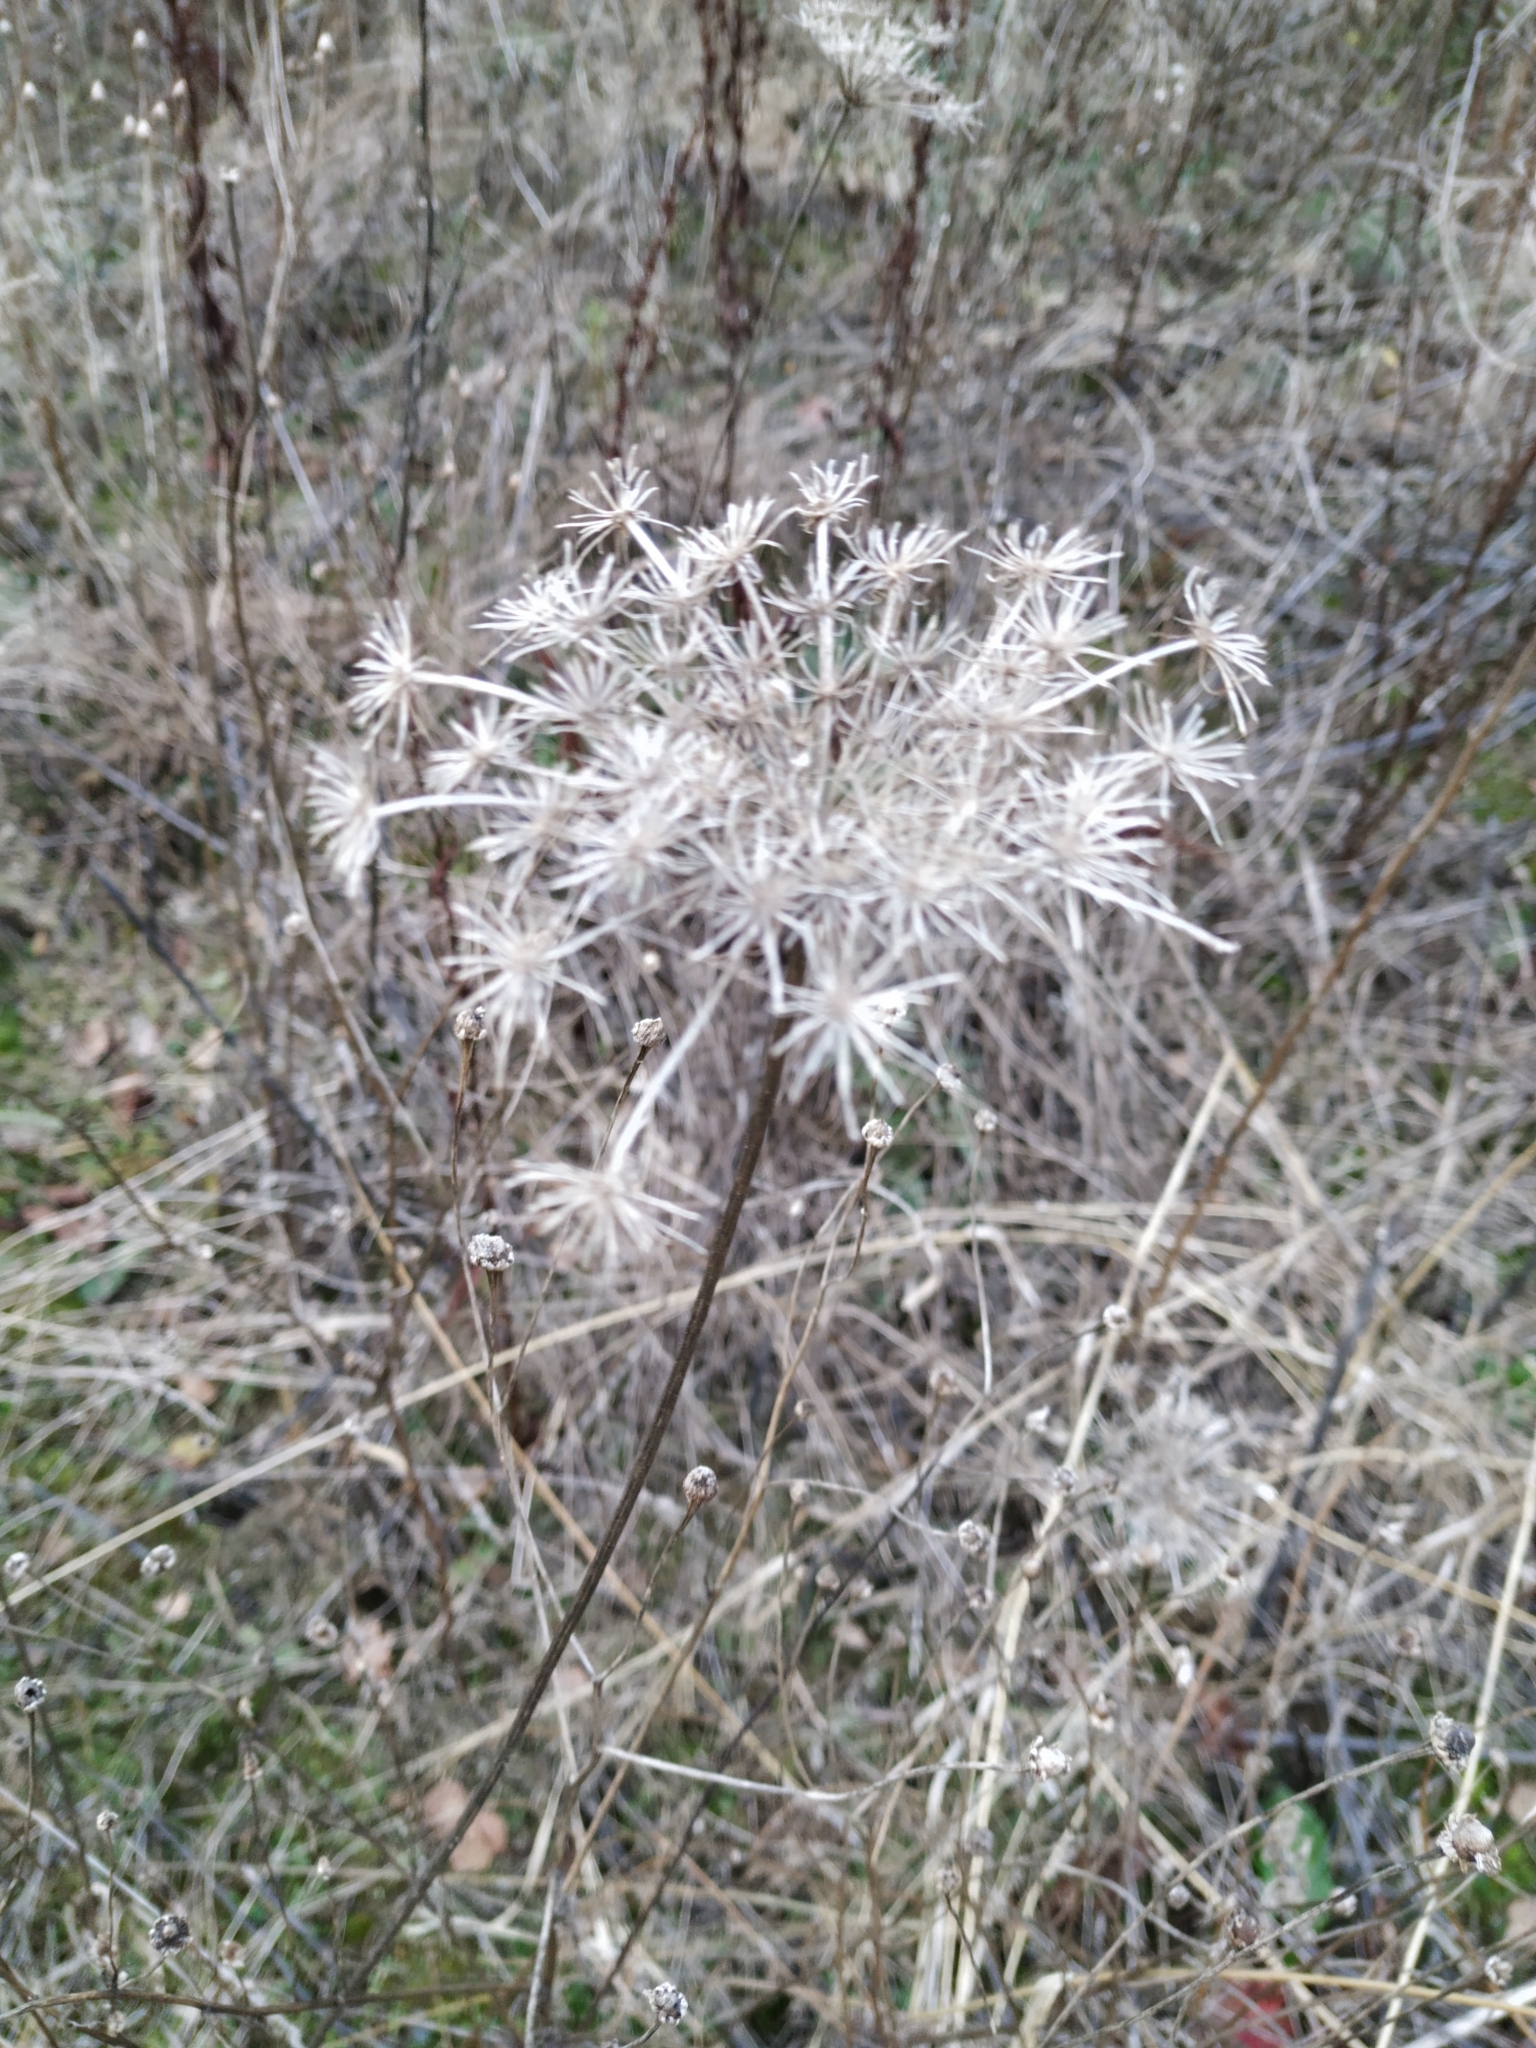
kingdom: Plantae
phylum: Tracheophyta
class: Magnoliopsida
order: Apiales
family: Apiaceae
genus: Daucus
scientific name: Daucus carota
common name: Wild carrot
